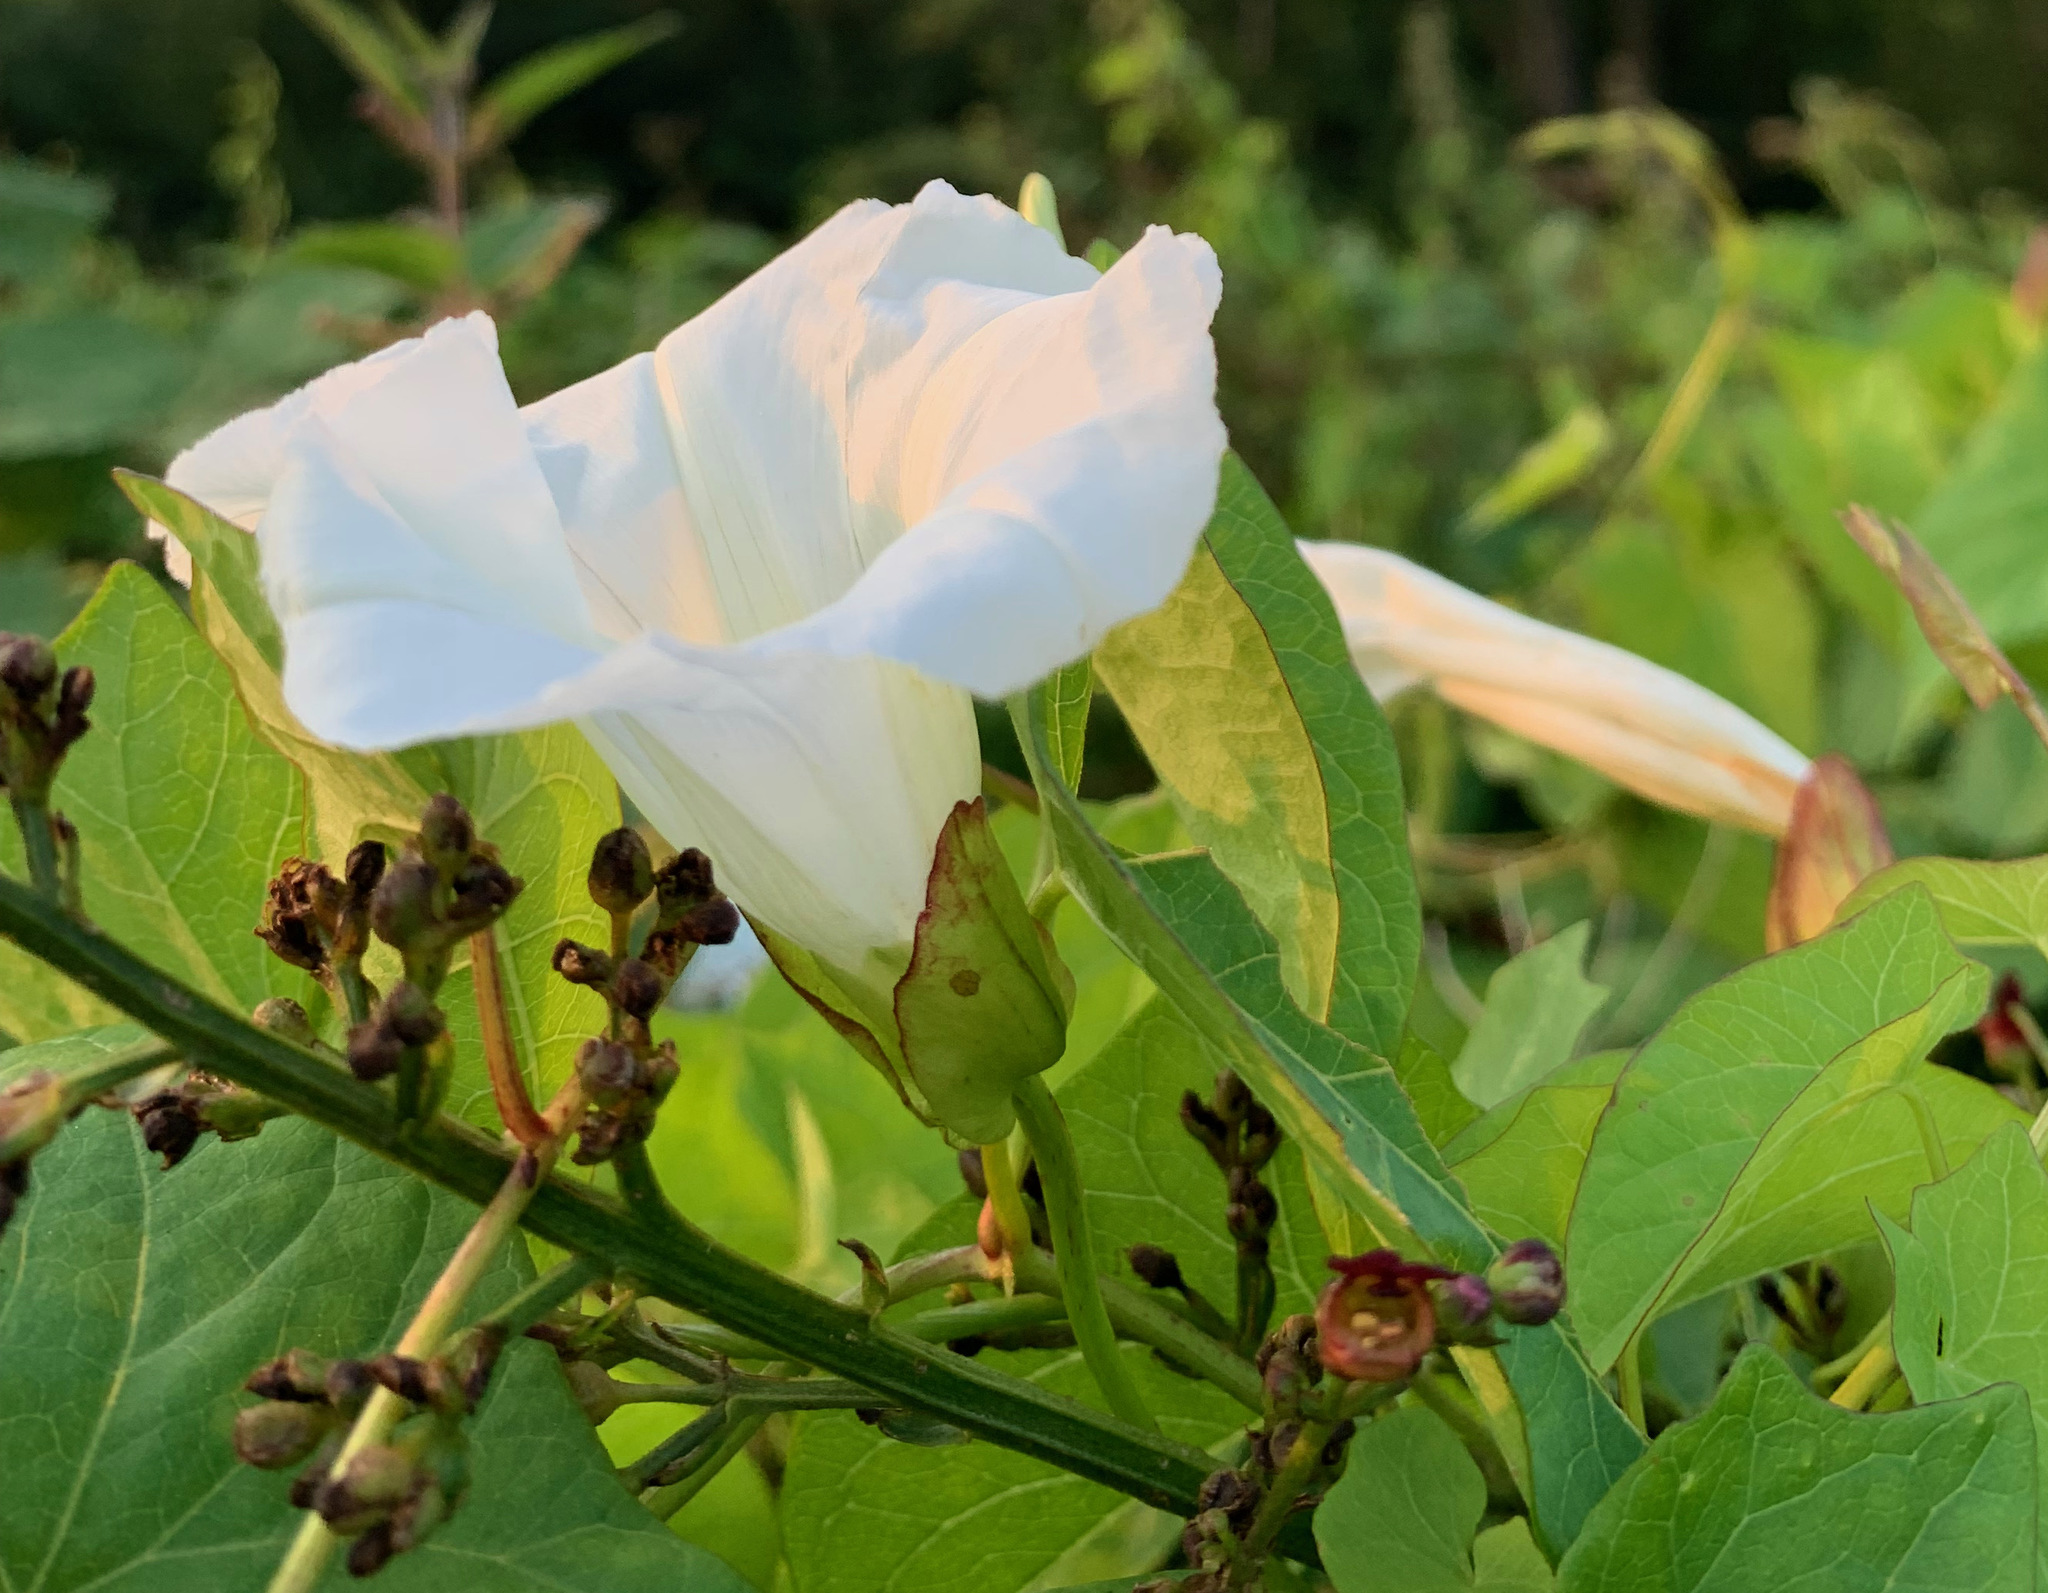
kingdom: Plantae
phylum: Tracheophyta
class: Magnoliopsida
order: Solanales
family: Convolvulaceae
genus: Calystegia
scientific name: Calystegia sepium
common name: Hedge bindweed
